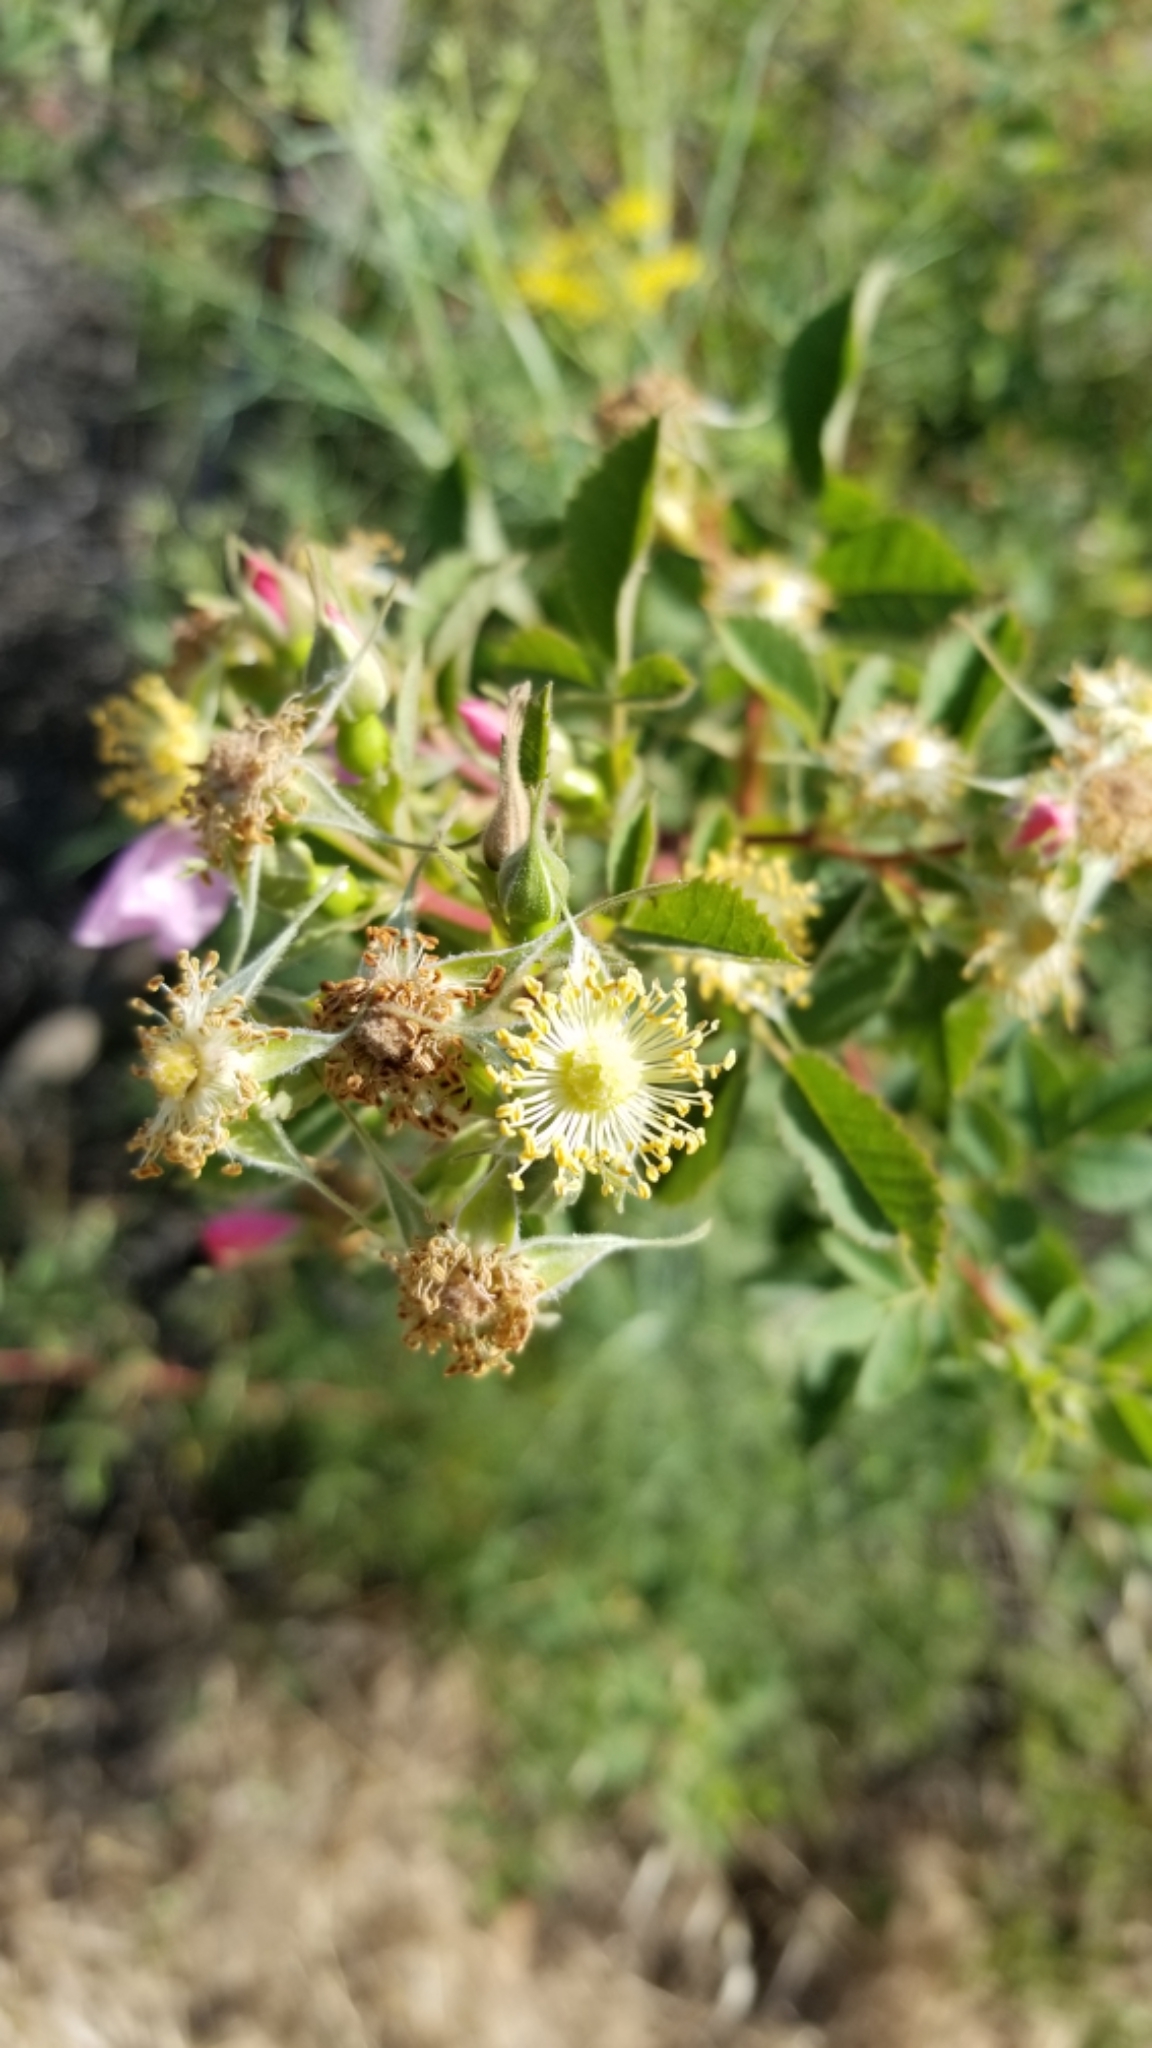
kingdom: Plantae
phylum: Tracheophyta
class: Magnoliopsida
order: Rosales
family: Rosaceae
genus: Rosa
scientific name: Rosa californica
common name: California rose
